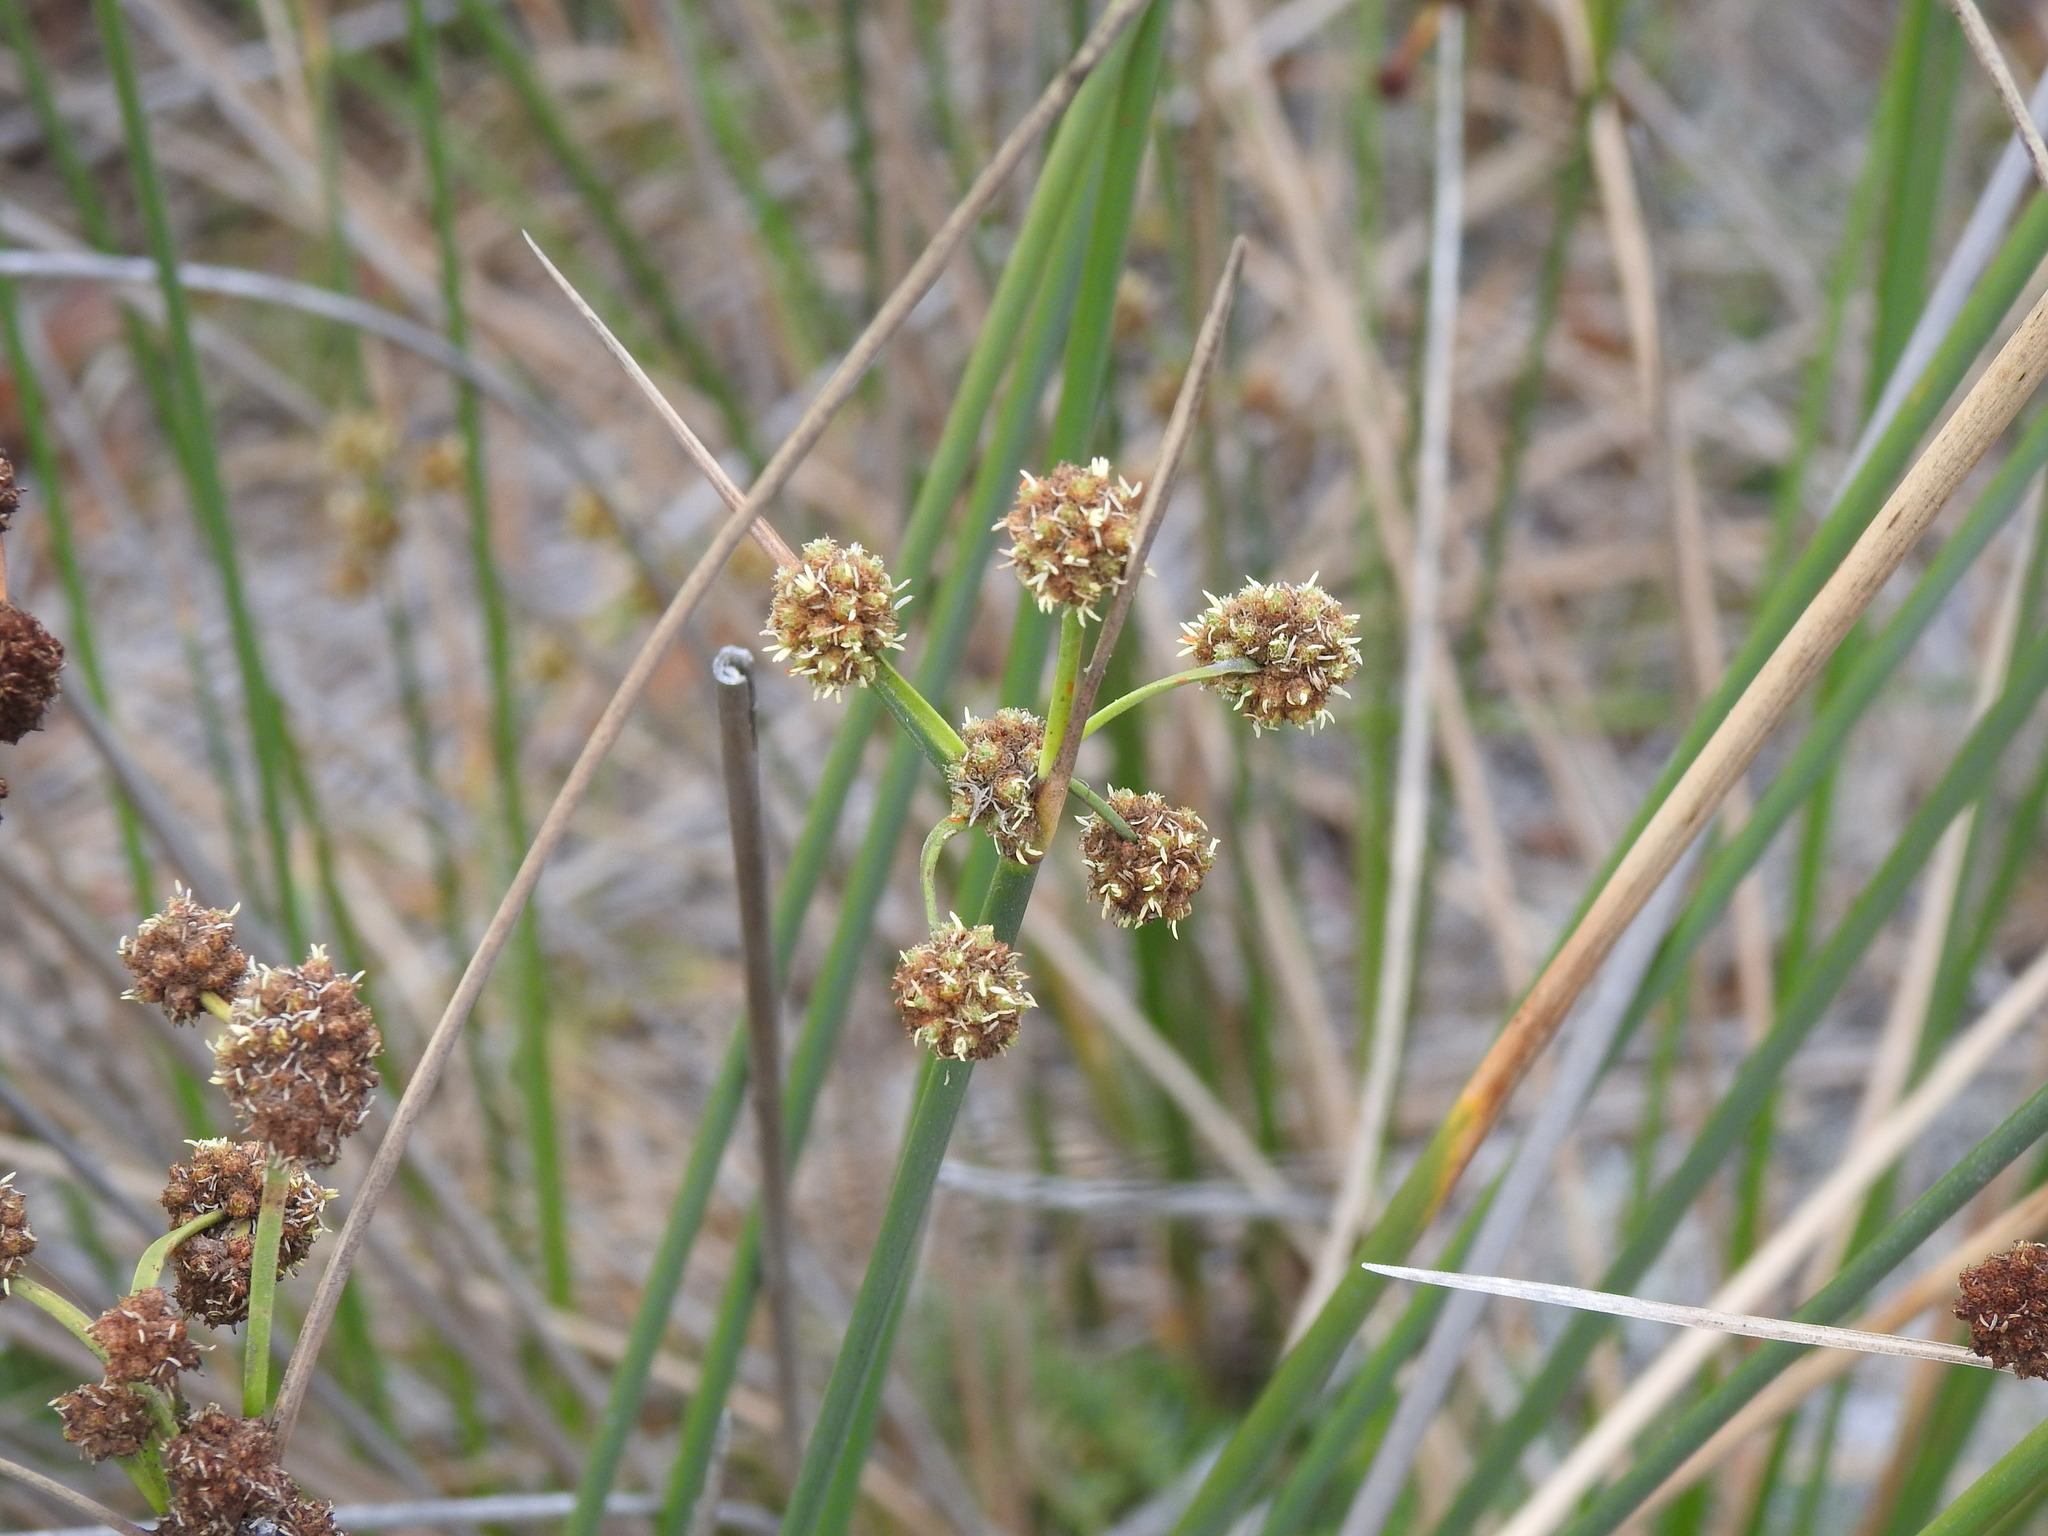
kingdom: Plantae
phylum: Tracheophyta
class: Liliopsida
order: Poales
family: Cyperaceae
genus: Scirpoides
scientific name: Scirpoides holoschoenus
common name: Round-headed club-rush
